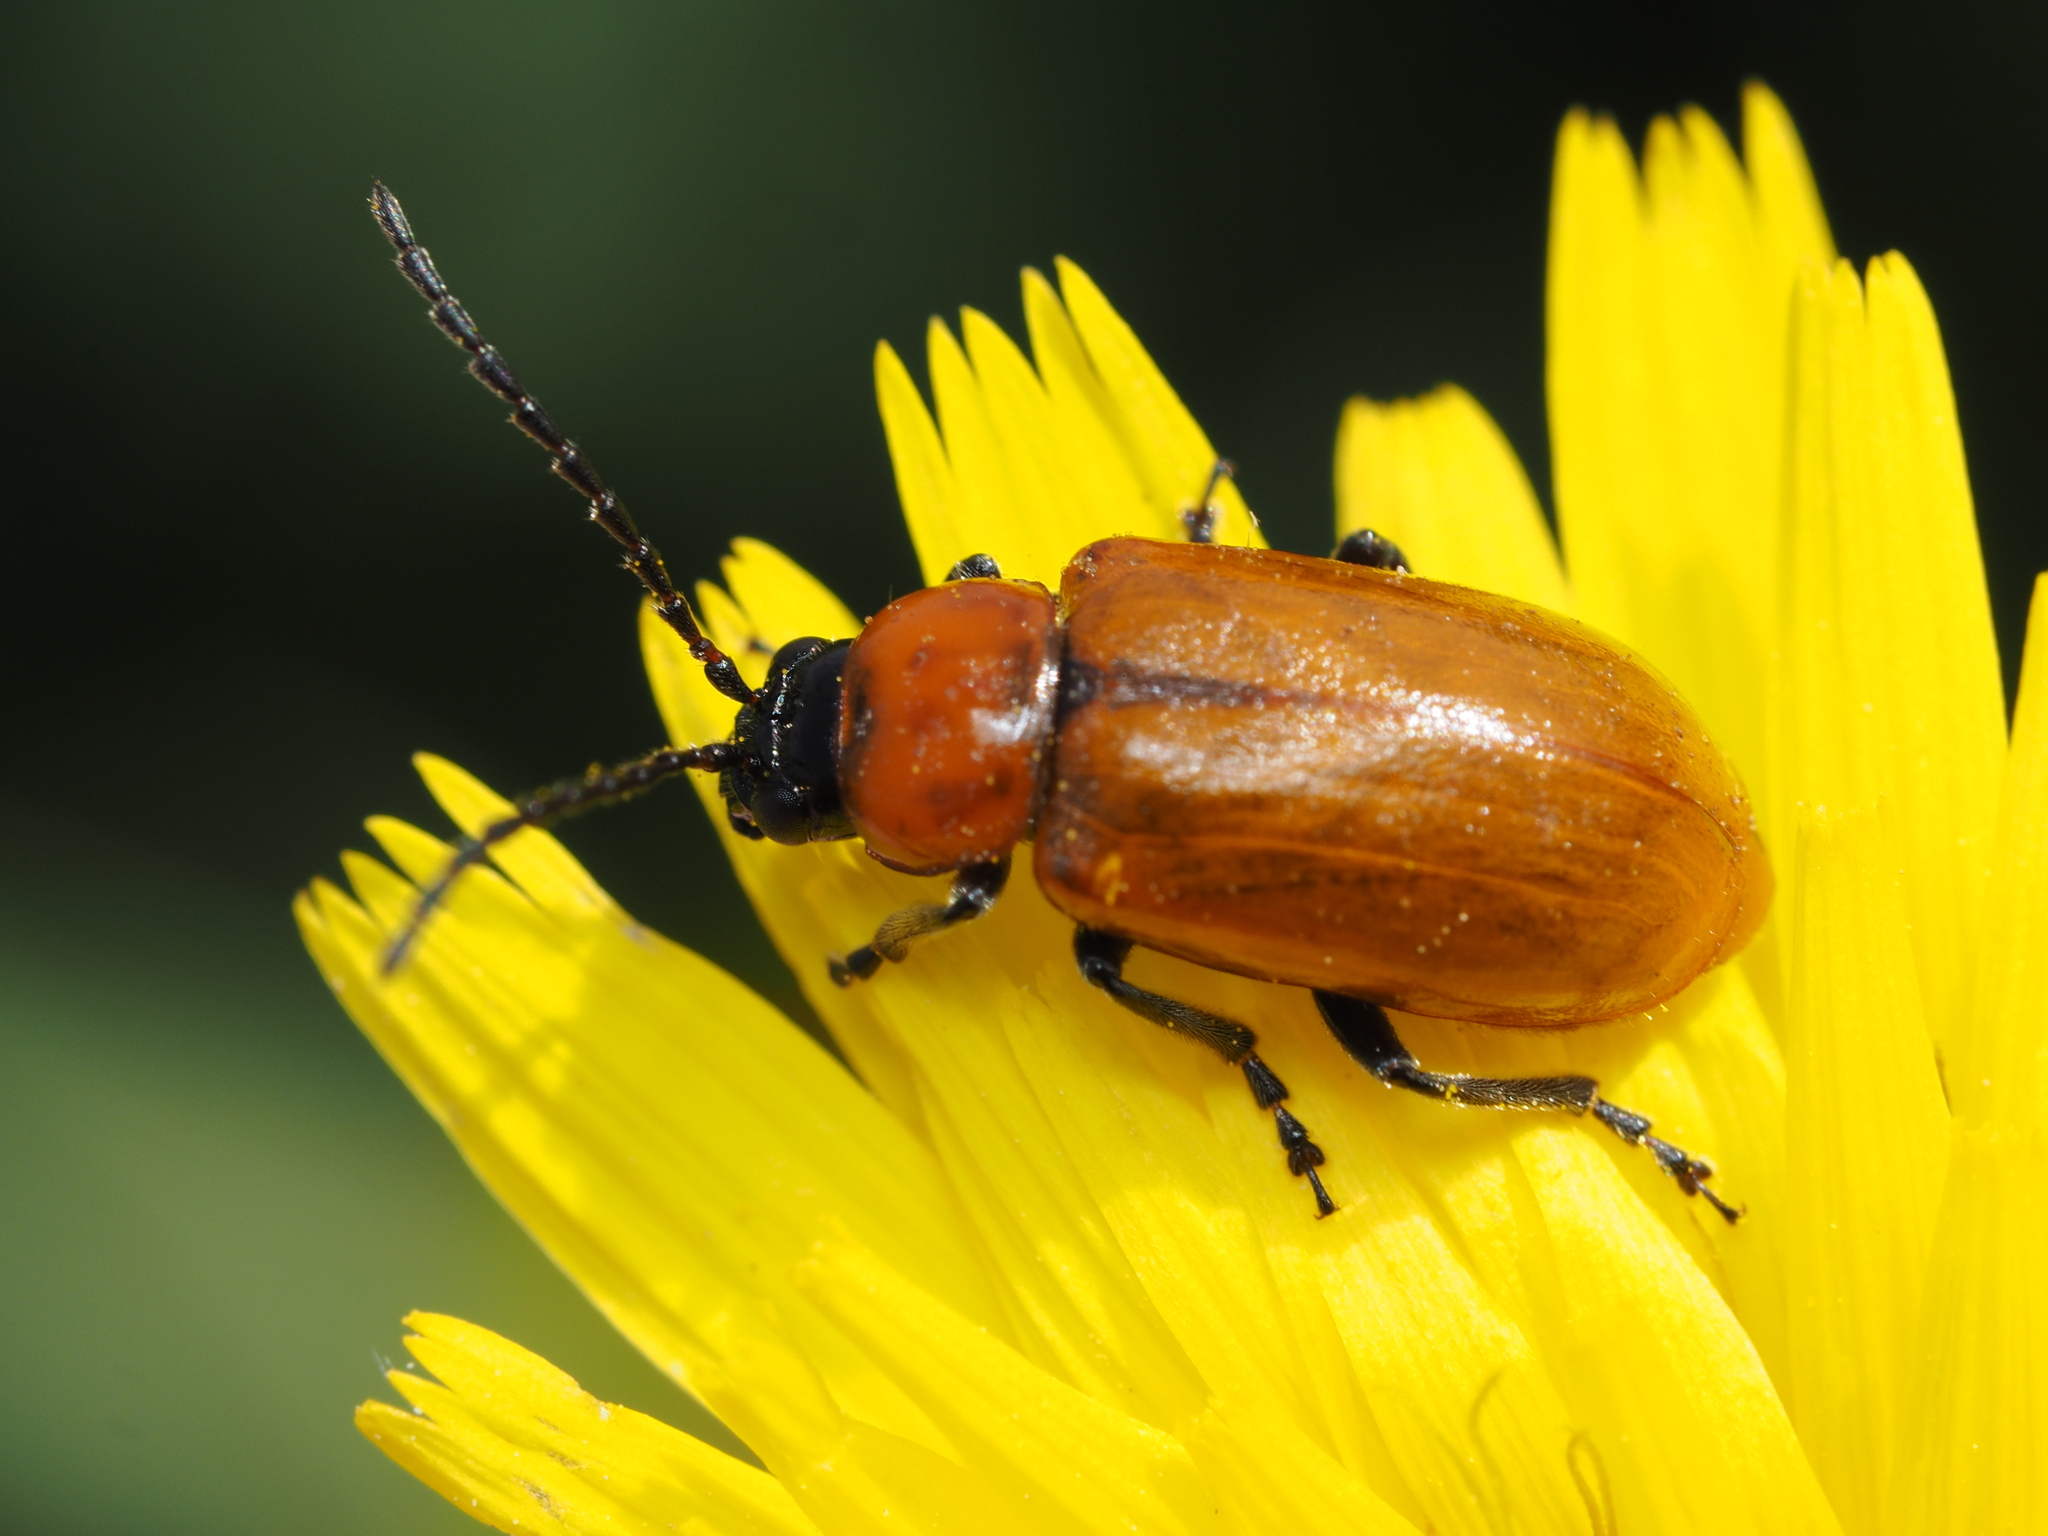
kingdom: Animalia
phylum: Arthropoda
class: Insecta
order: Coleoptera
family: Chrysomelidae
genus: Exosoma
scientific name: Exosoma lusitanicum
